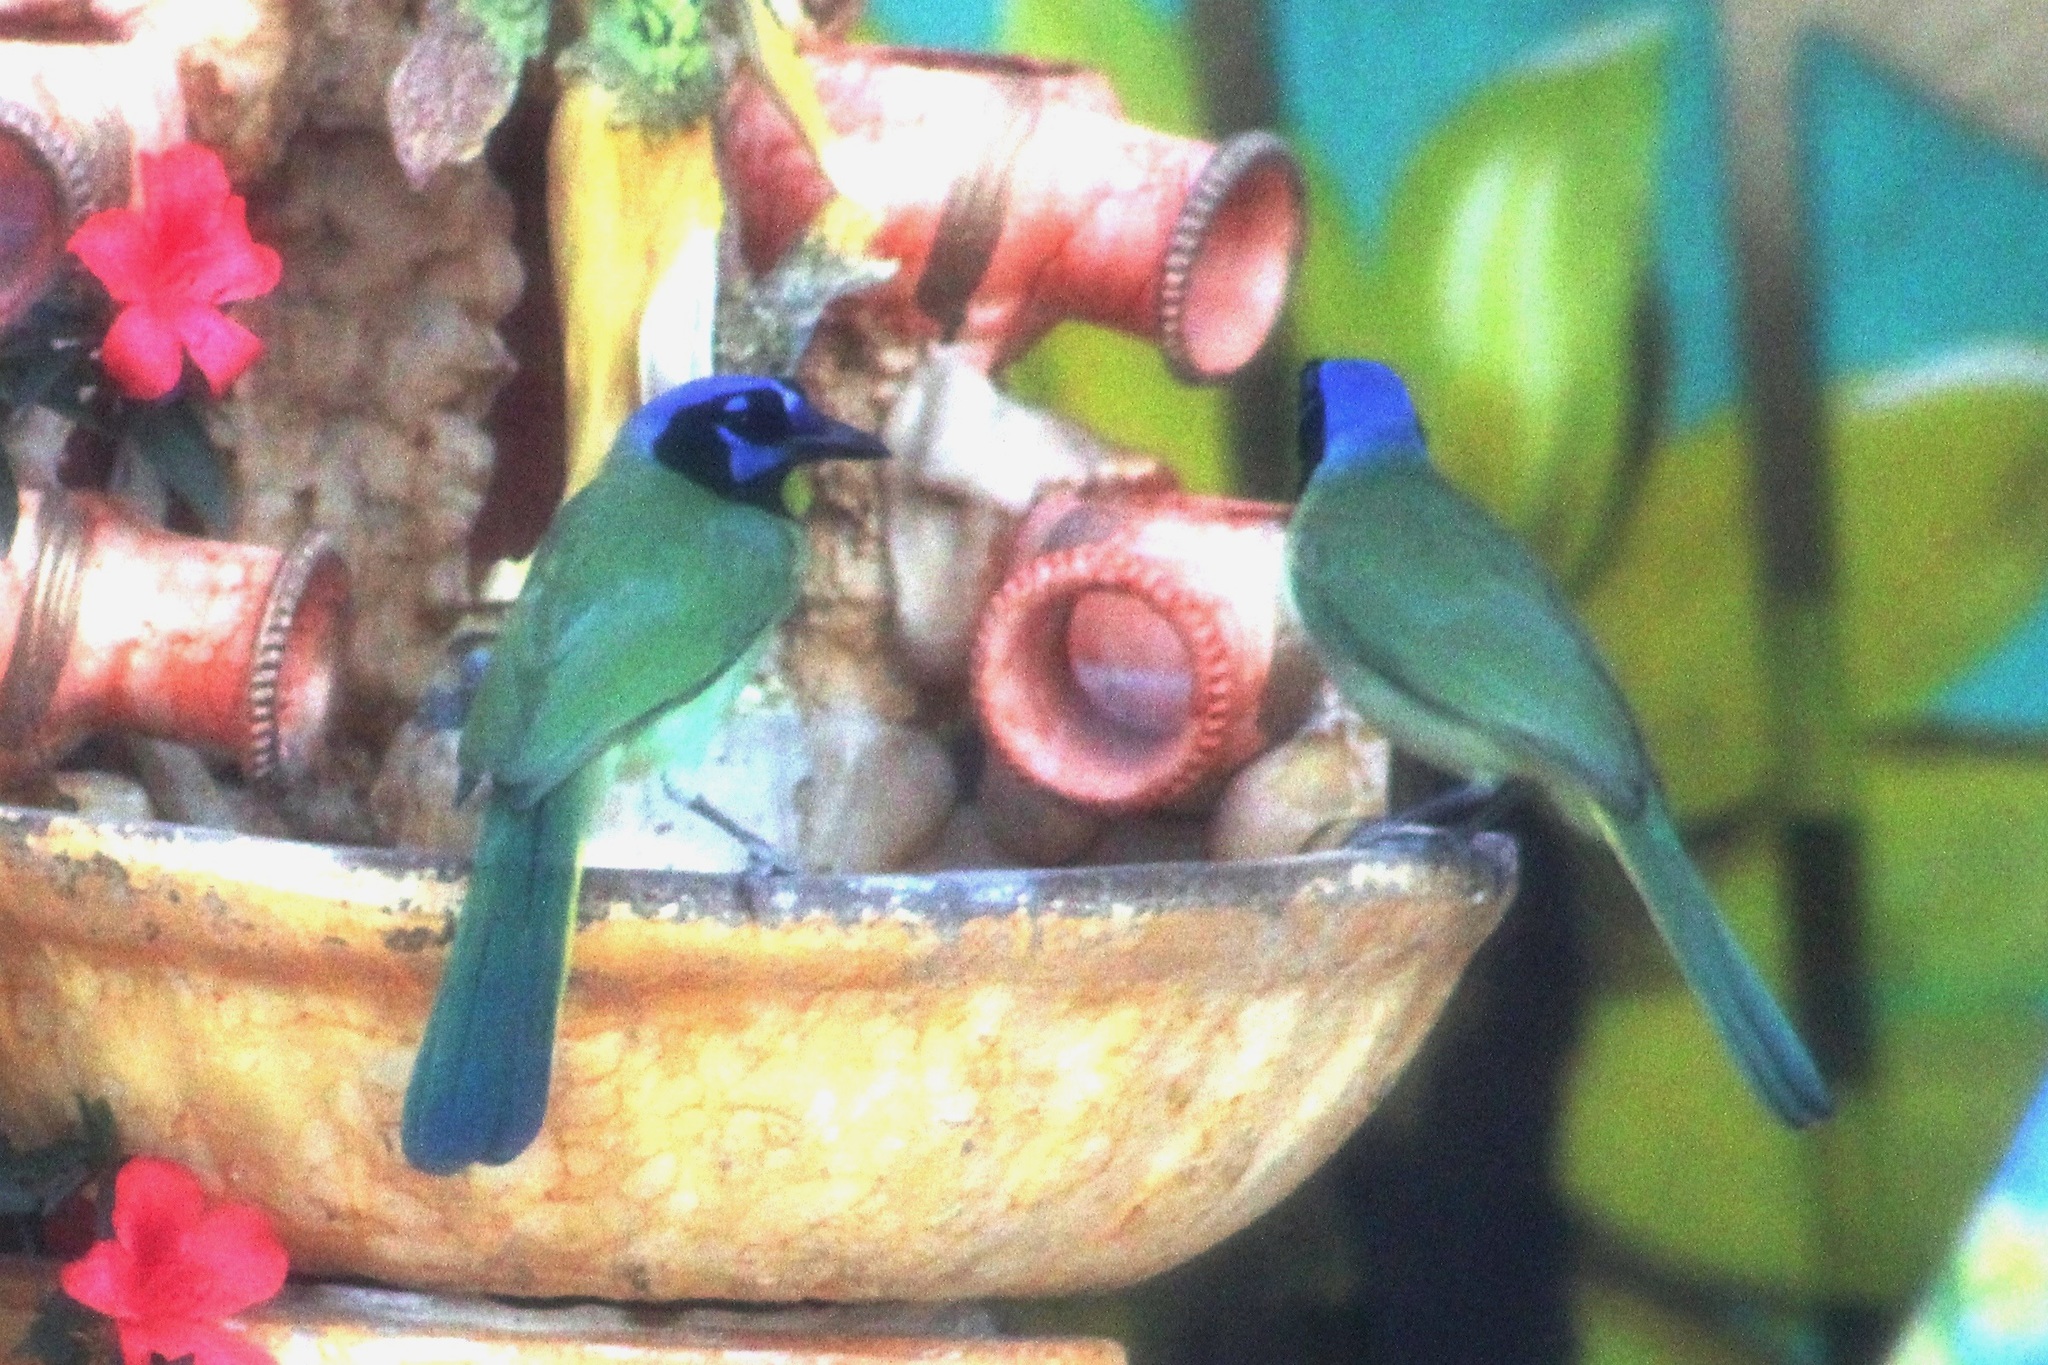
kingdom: Animalia
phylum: Chordata
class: Aves
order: Passeriformes
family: Corvidae
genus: Cyanocorax
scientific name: Cyanocorax yncas
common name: Green jay
